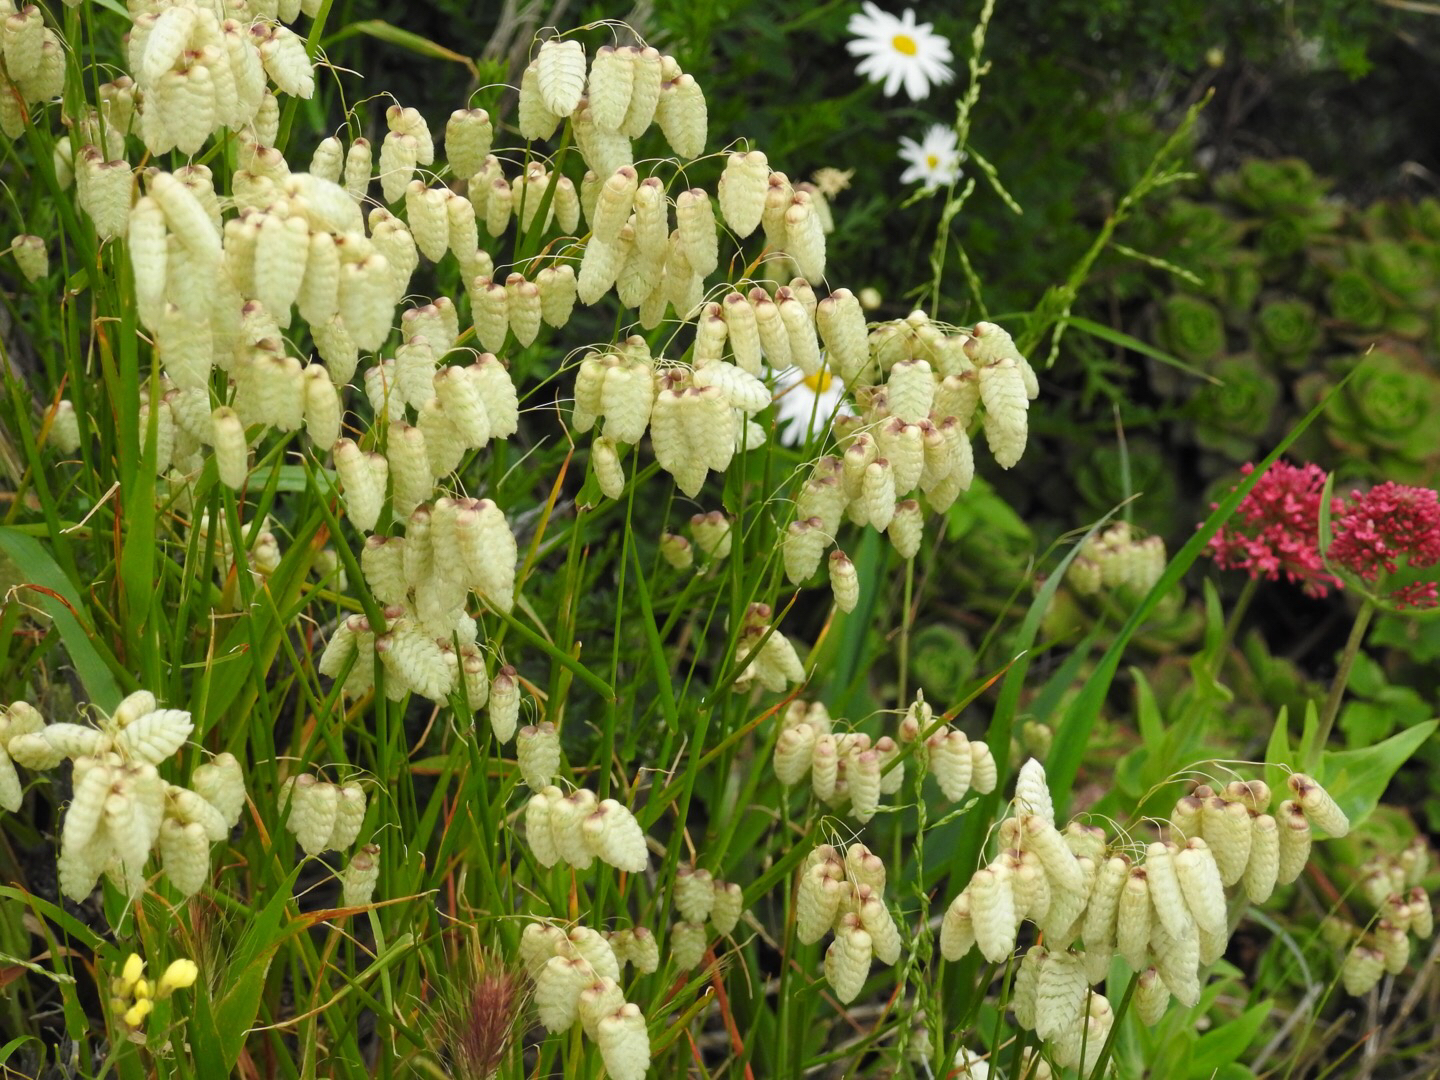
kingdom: Plantae
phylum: Tracheophyta
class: Liliopsida
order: Poales
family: Poaceae
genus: Briza
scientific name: Briza maxima
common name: Big quakinggrass
